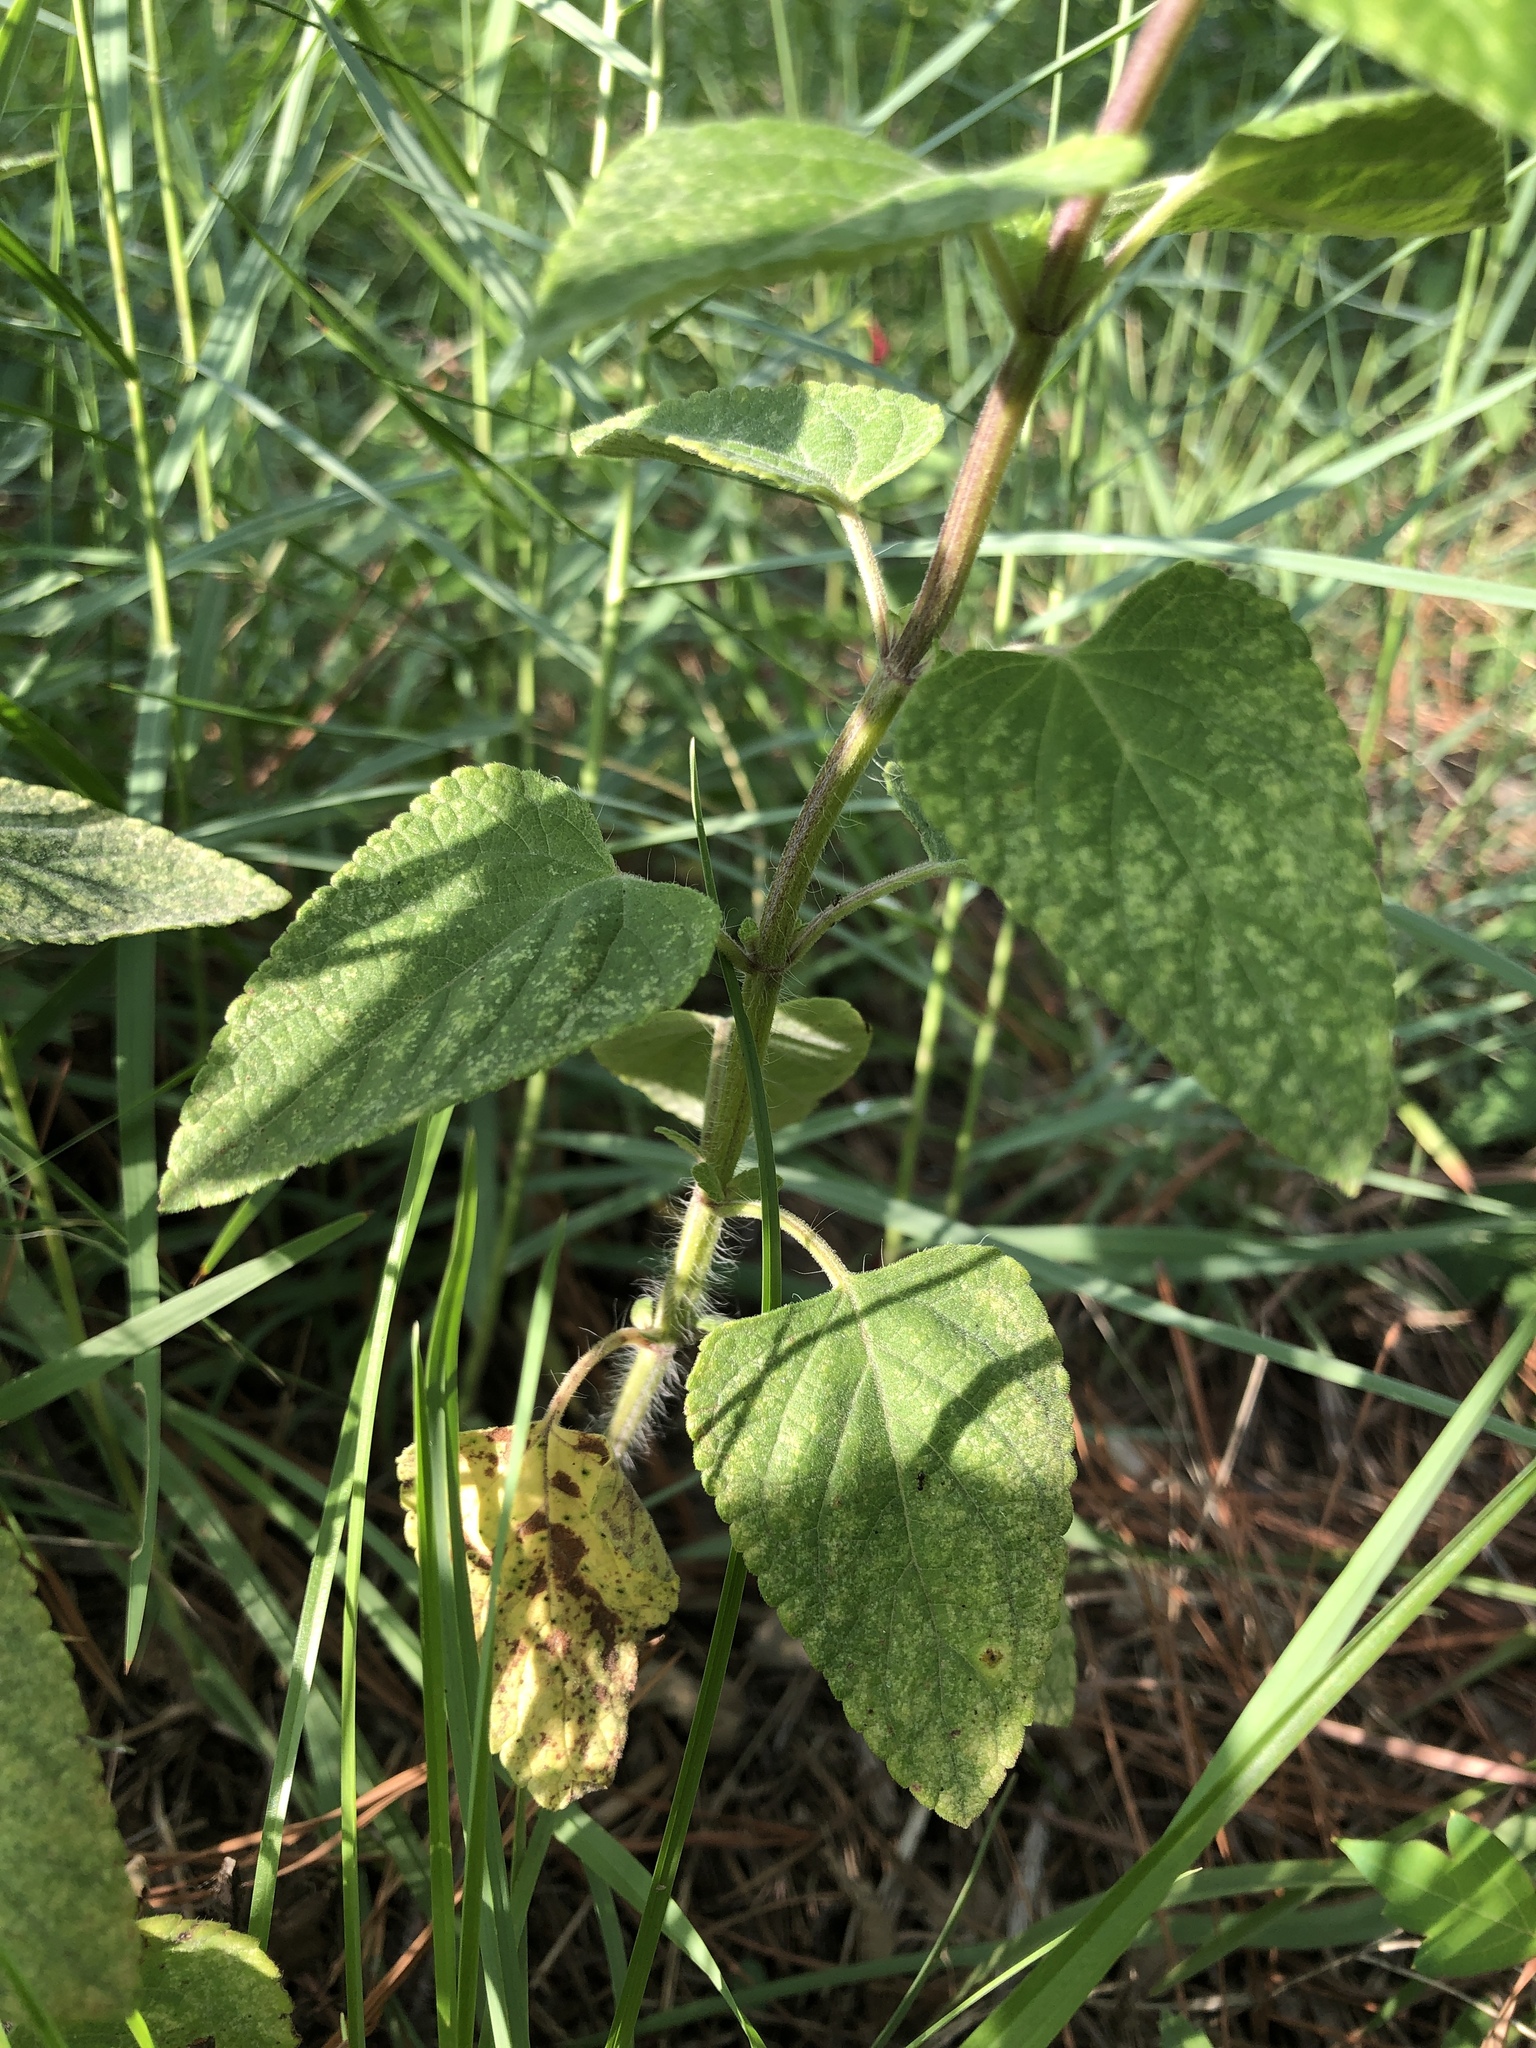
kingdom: Plantae
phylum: Tracheophyta
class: Magnoliopsida
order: Lamiales
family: Lamiaceae
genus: Salvia
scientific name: Salvia coccinea
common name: Blood sage
